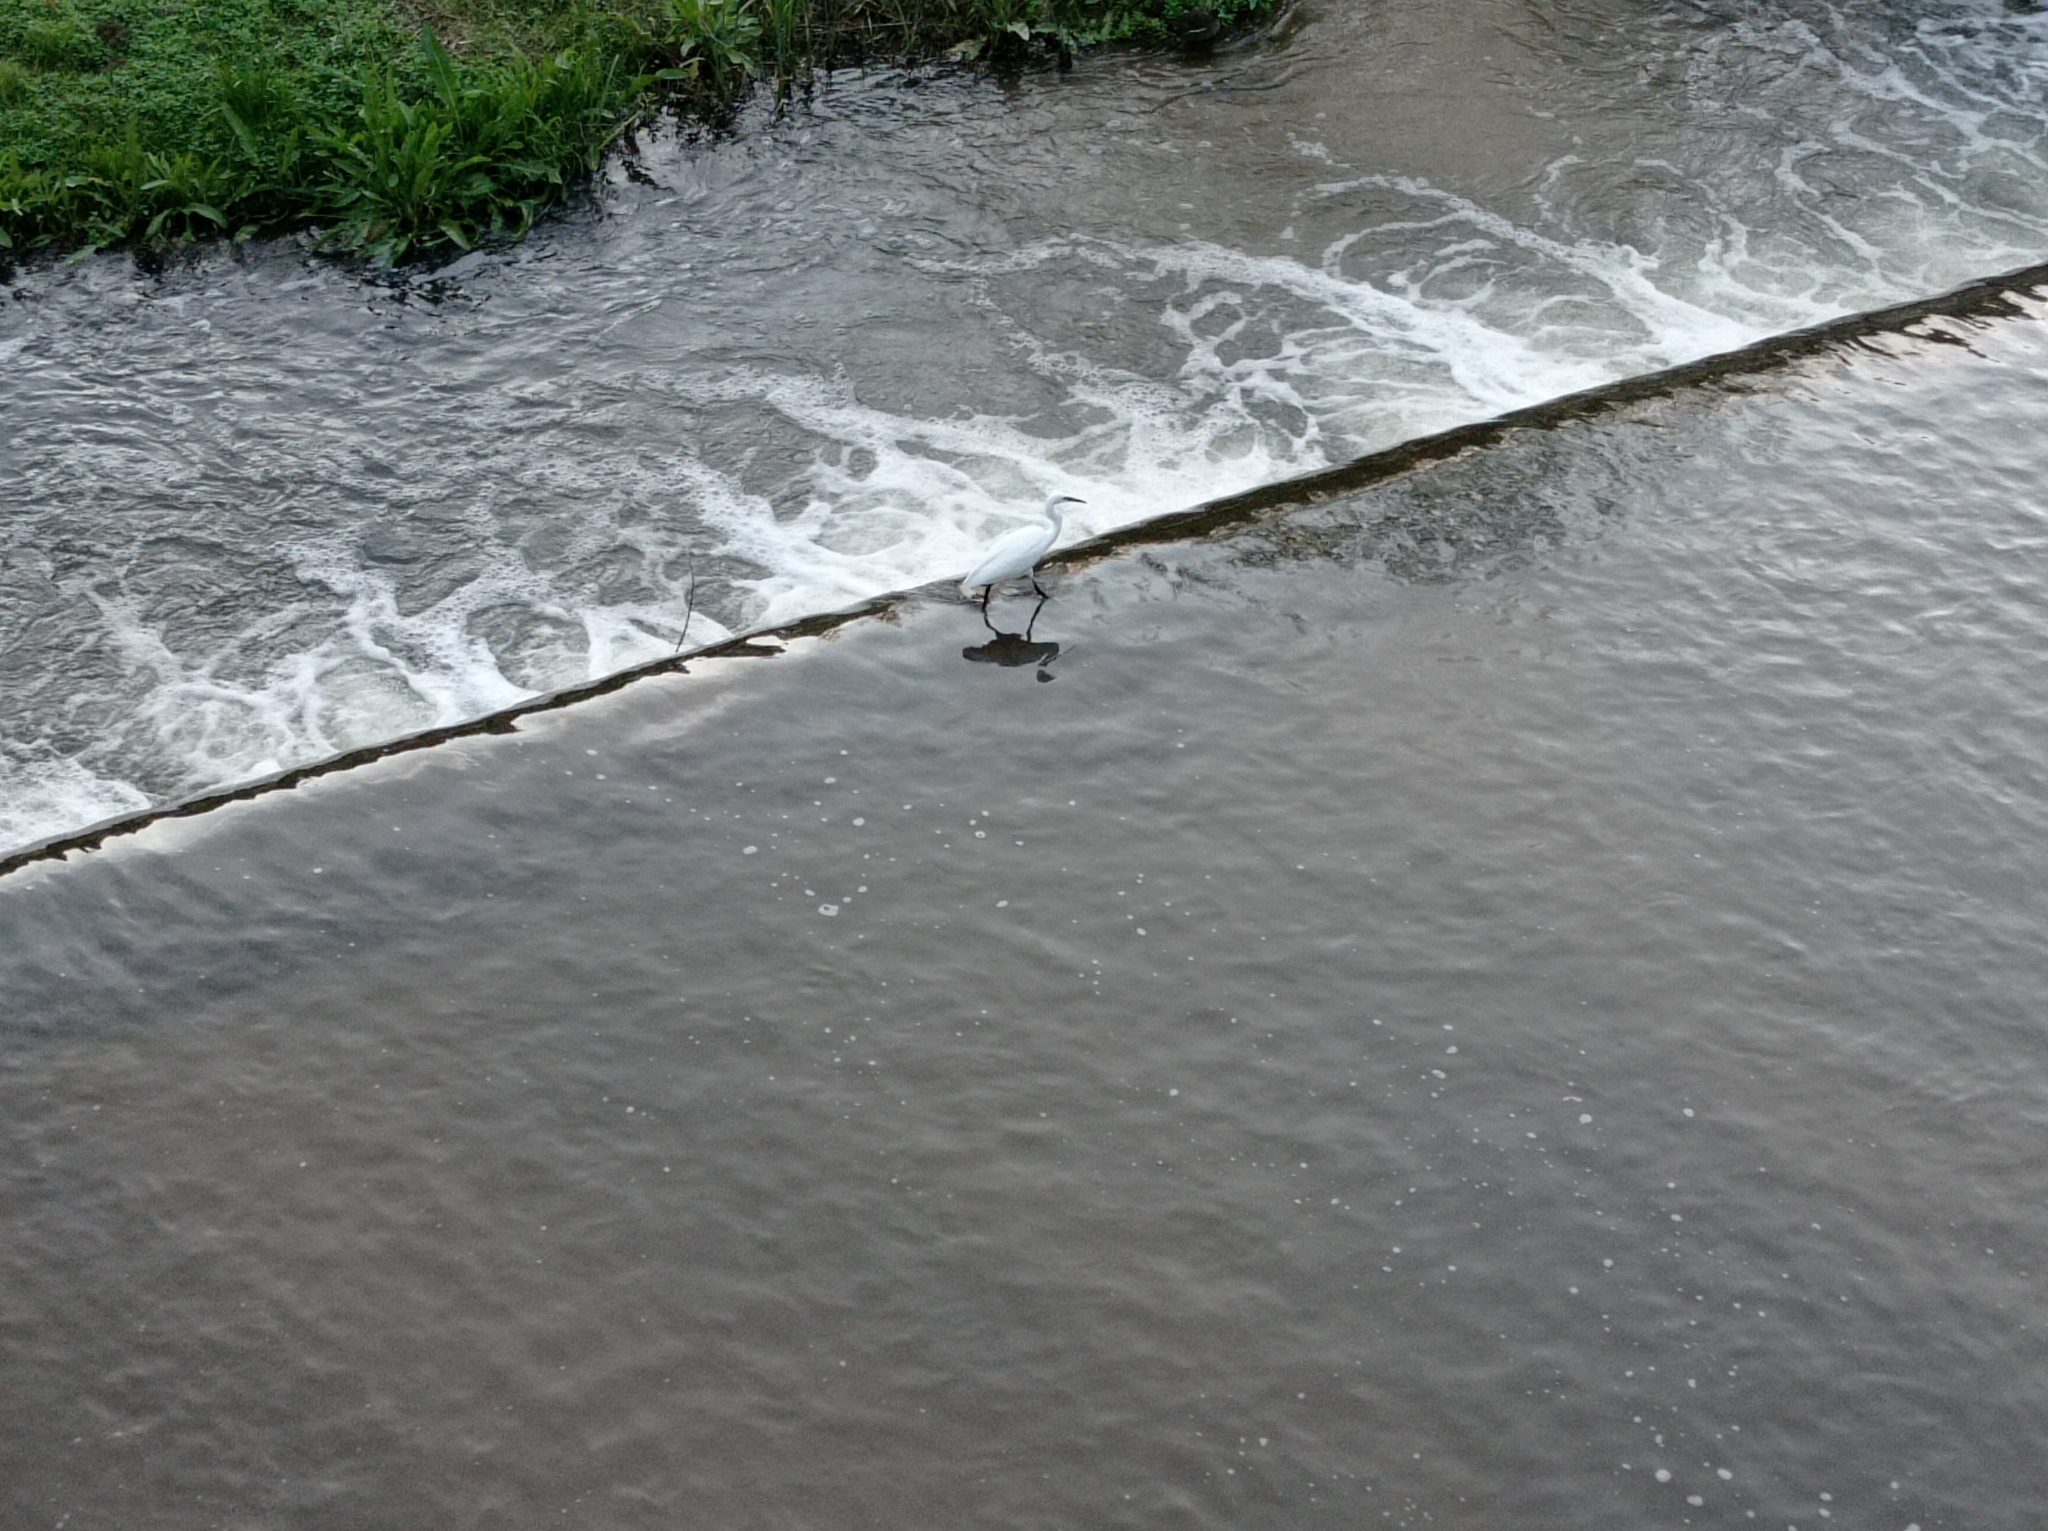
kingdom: Animalia
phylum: Chordata
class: Aves
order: Pelecaniformes
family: Ardeidae
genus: Egretta
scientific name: Egretta garzetta
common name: Little egret
